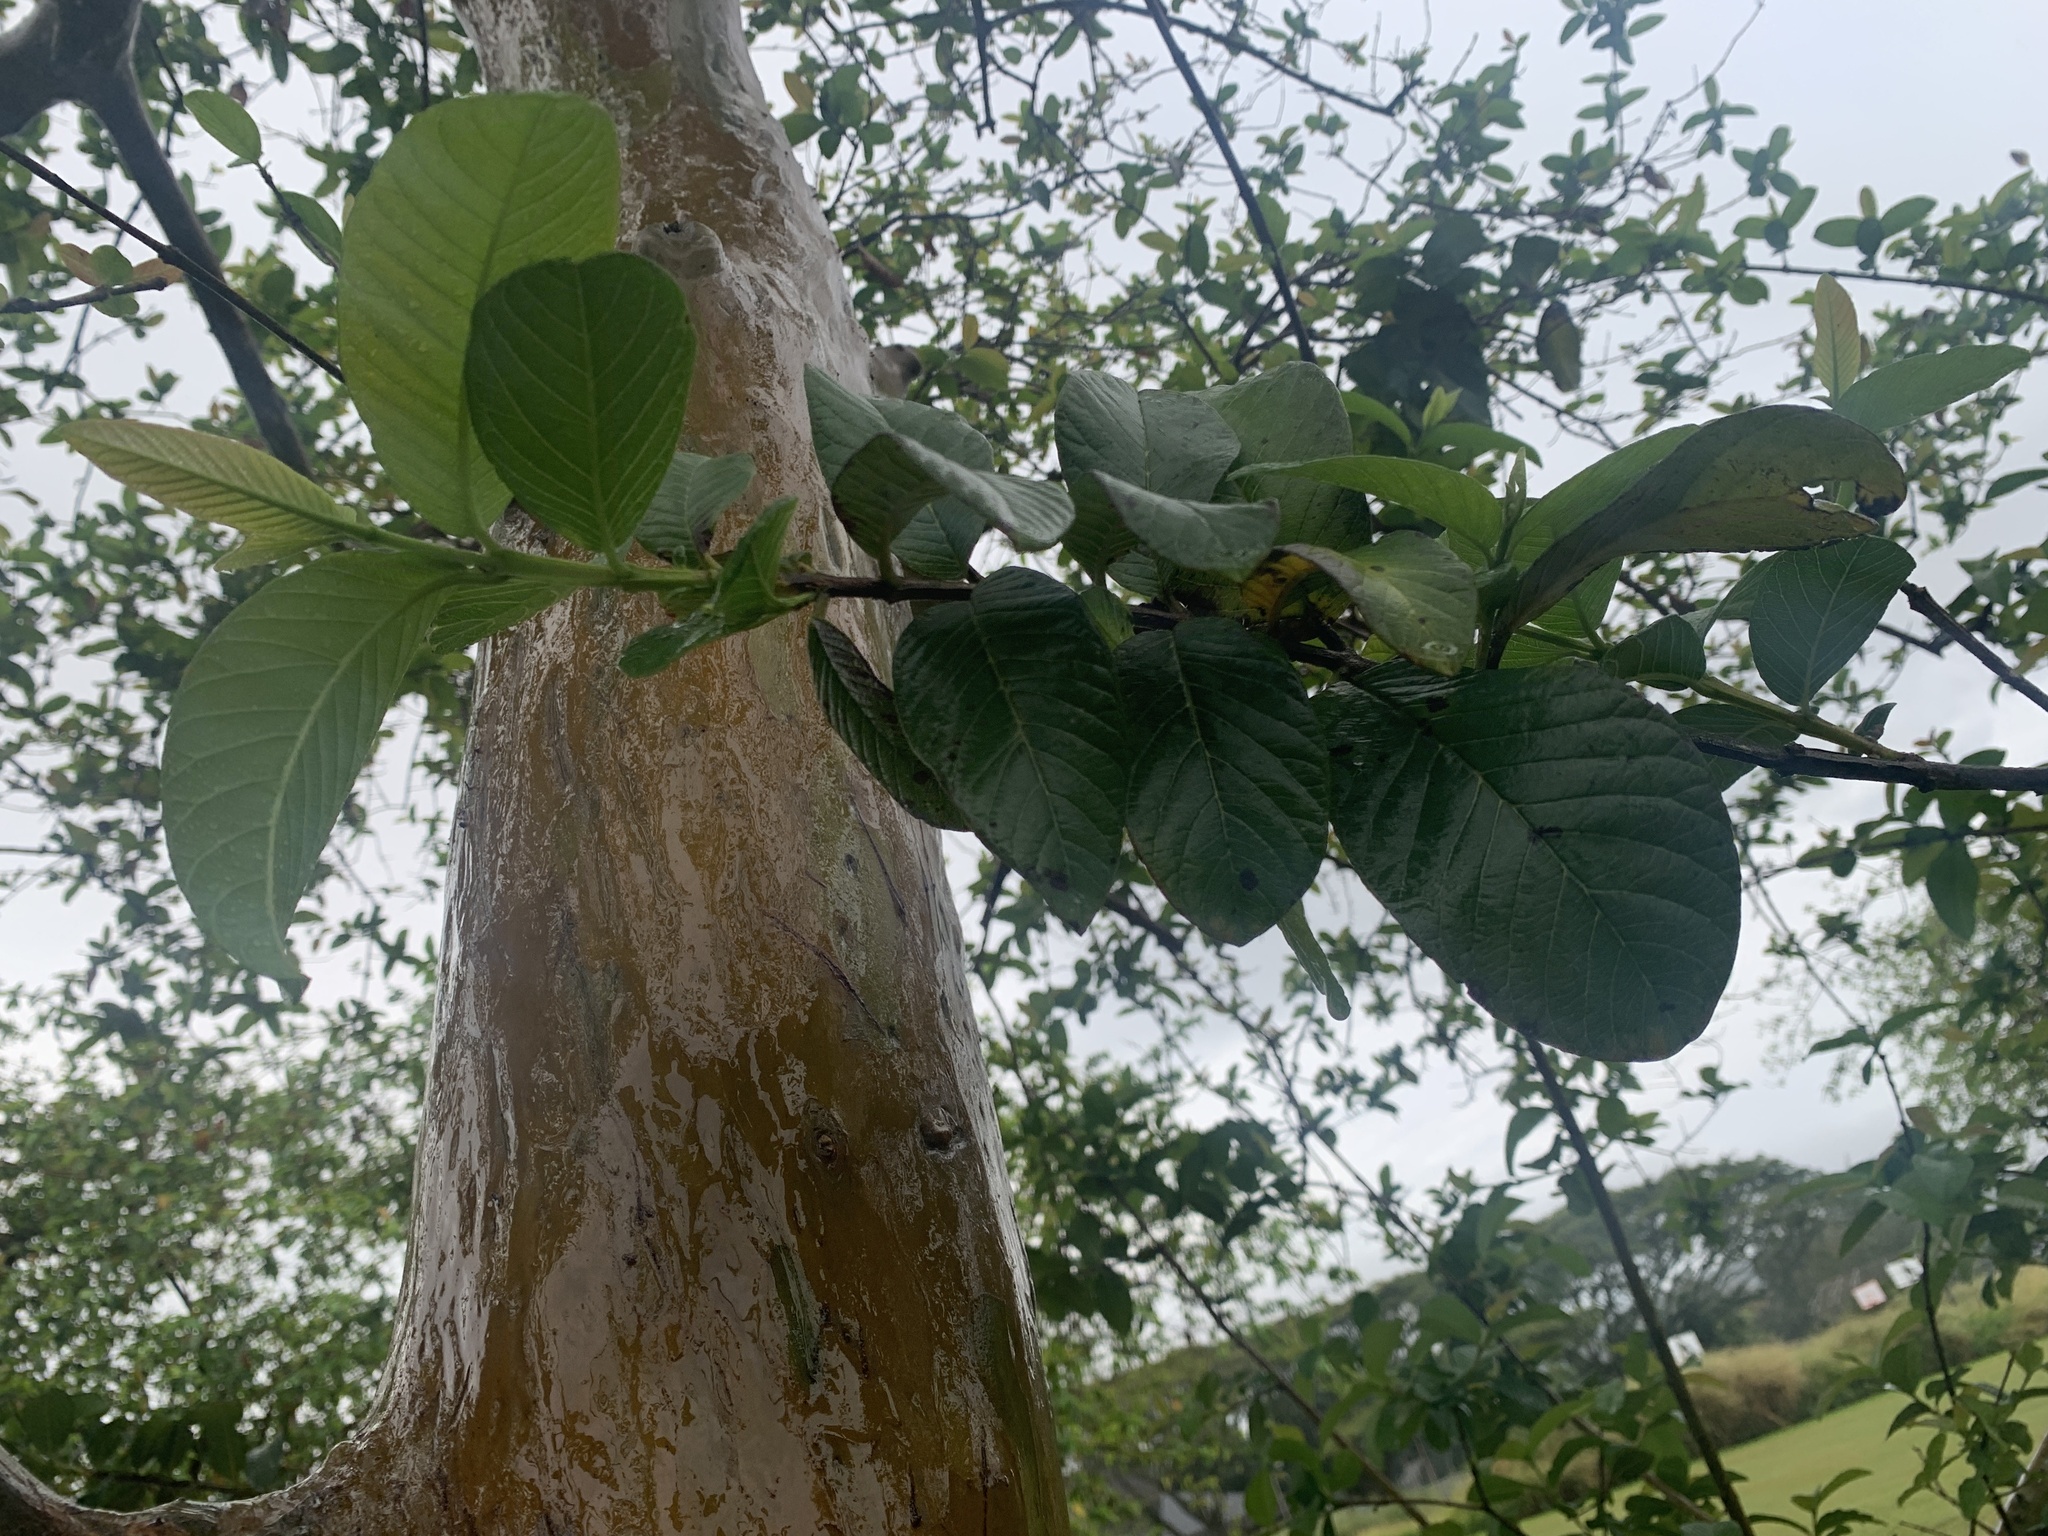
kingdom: Plantae
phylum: Tracheophyta
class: Magnoliopsida
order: Myrtales
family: Myrtaceae
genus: Psidium
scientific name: Psidium guajava
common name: Guava
